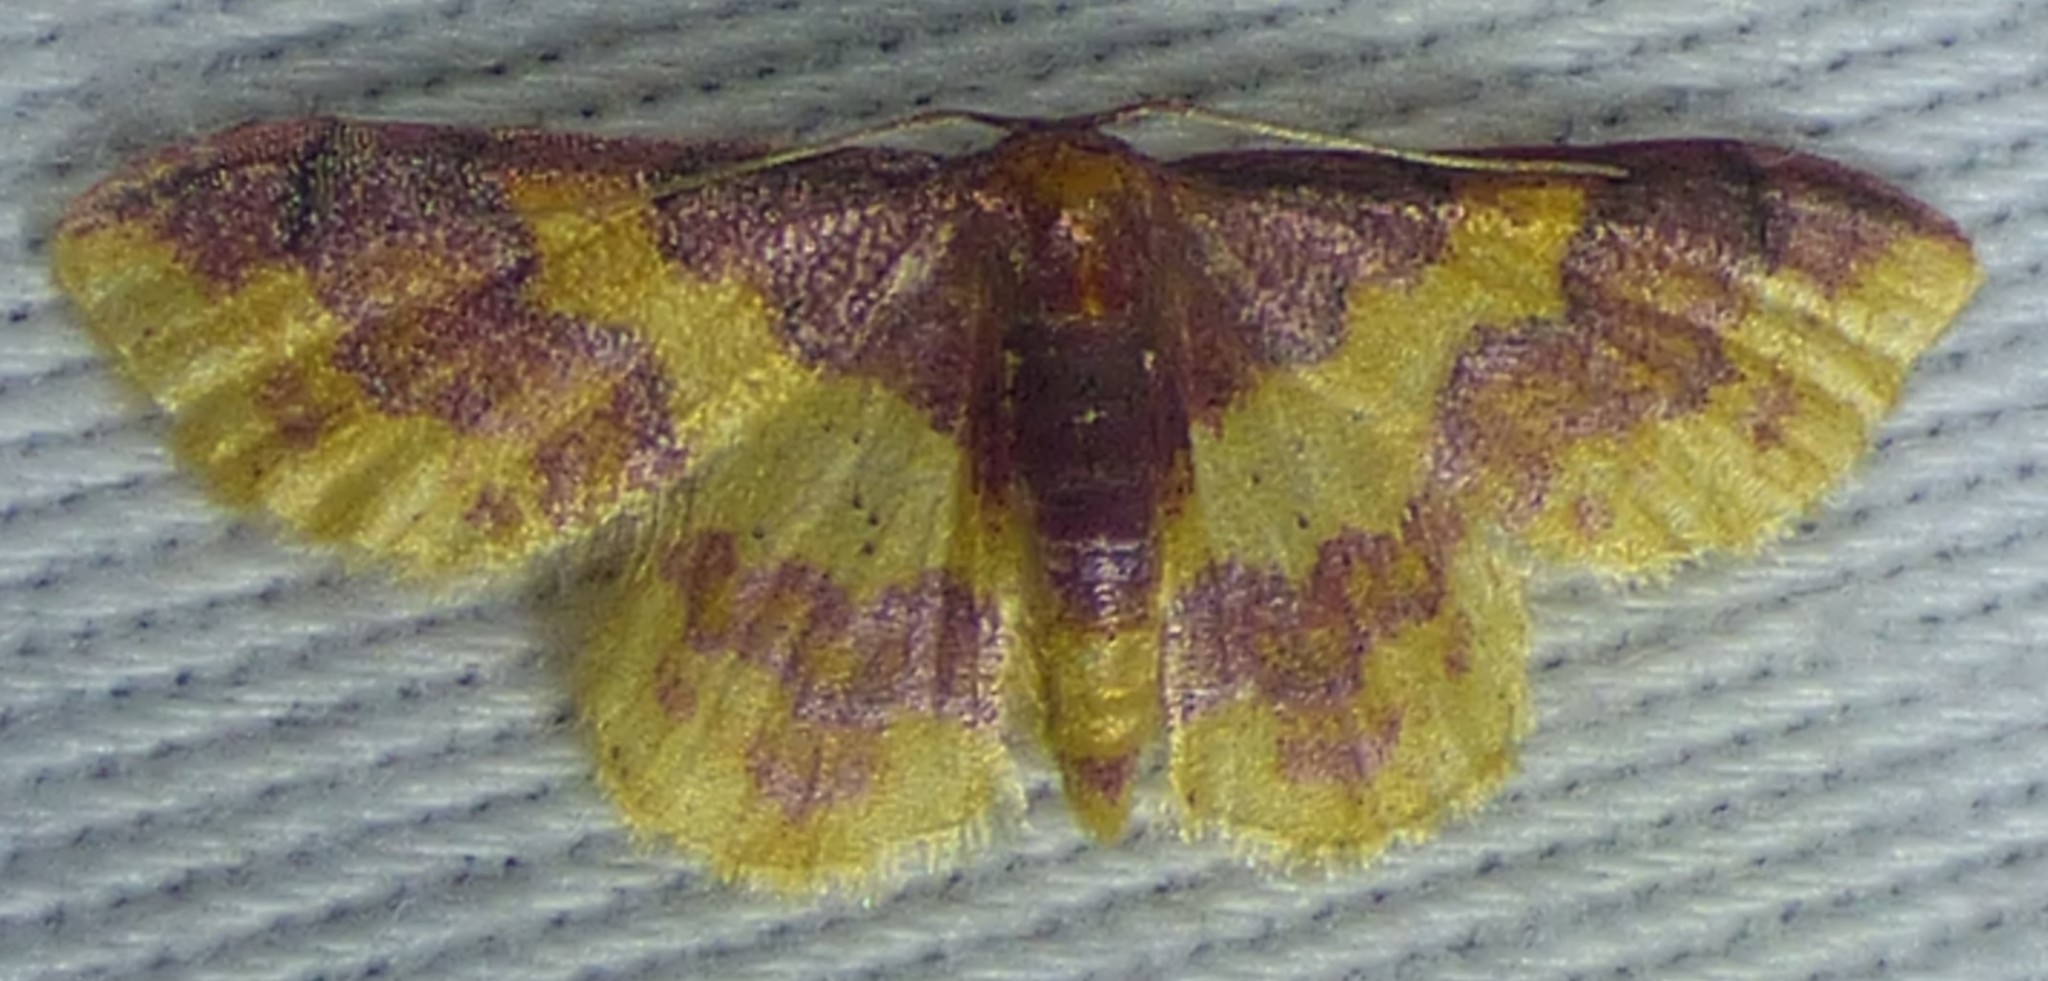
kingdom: Animalia
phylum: Arthropoda
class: Insecta
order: Lepidoptera
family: Geometridae
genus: Lophosis
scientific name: Lophosis labeculata
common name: Stained lophosis moth
